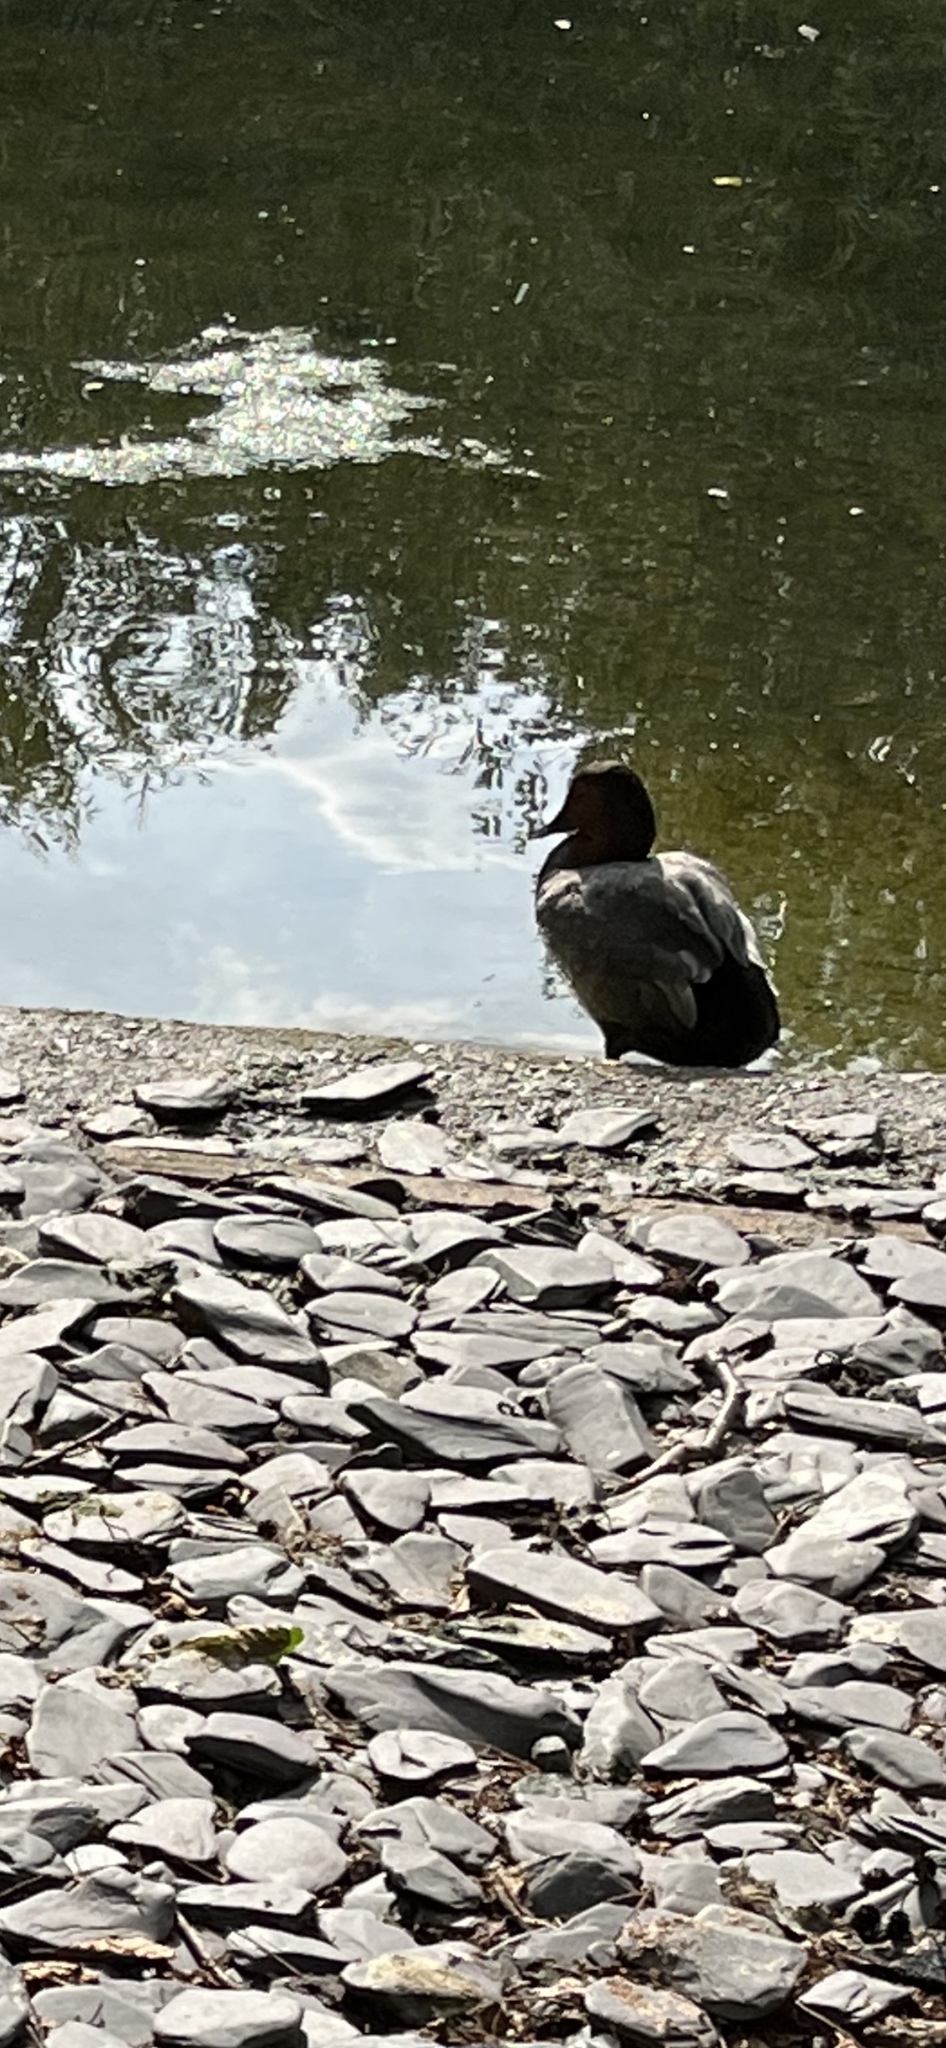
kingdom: Animalia
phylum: Chordata
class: Aves
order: Anseriformes
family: Anatidae
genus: Aythya
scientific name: Aythya ferina
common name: Common pochard
